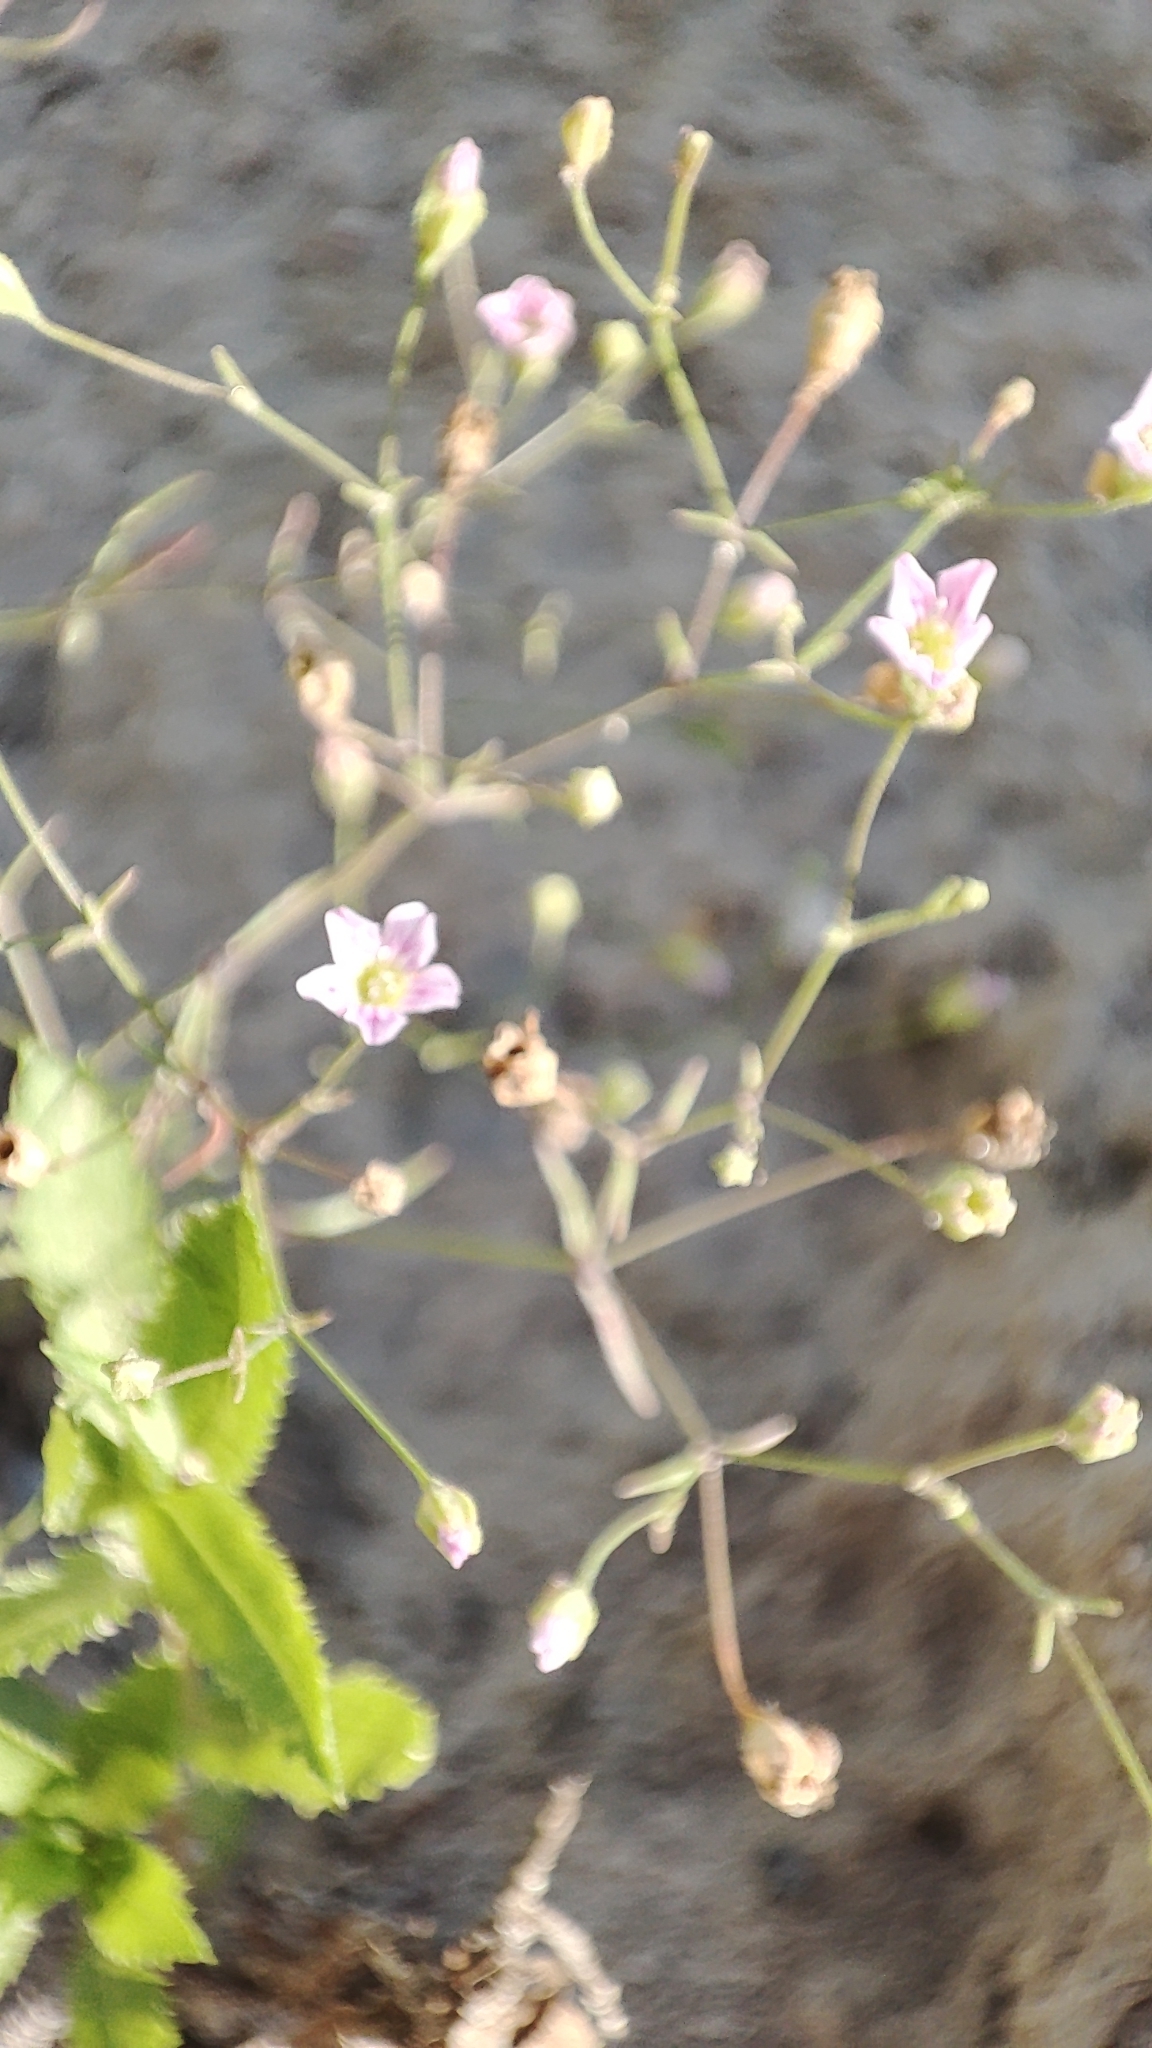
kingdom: Plantae
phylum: Tracheophyta
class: Magnoliopsida
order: Caryophyllales
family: Caryophyllaceae
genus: Psammophiliella
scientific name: Psammophiliella muralis
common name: Cushion baby's-breath
